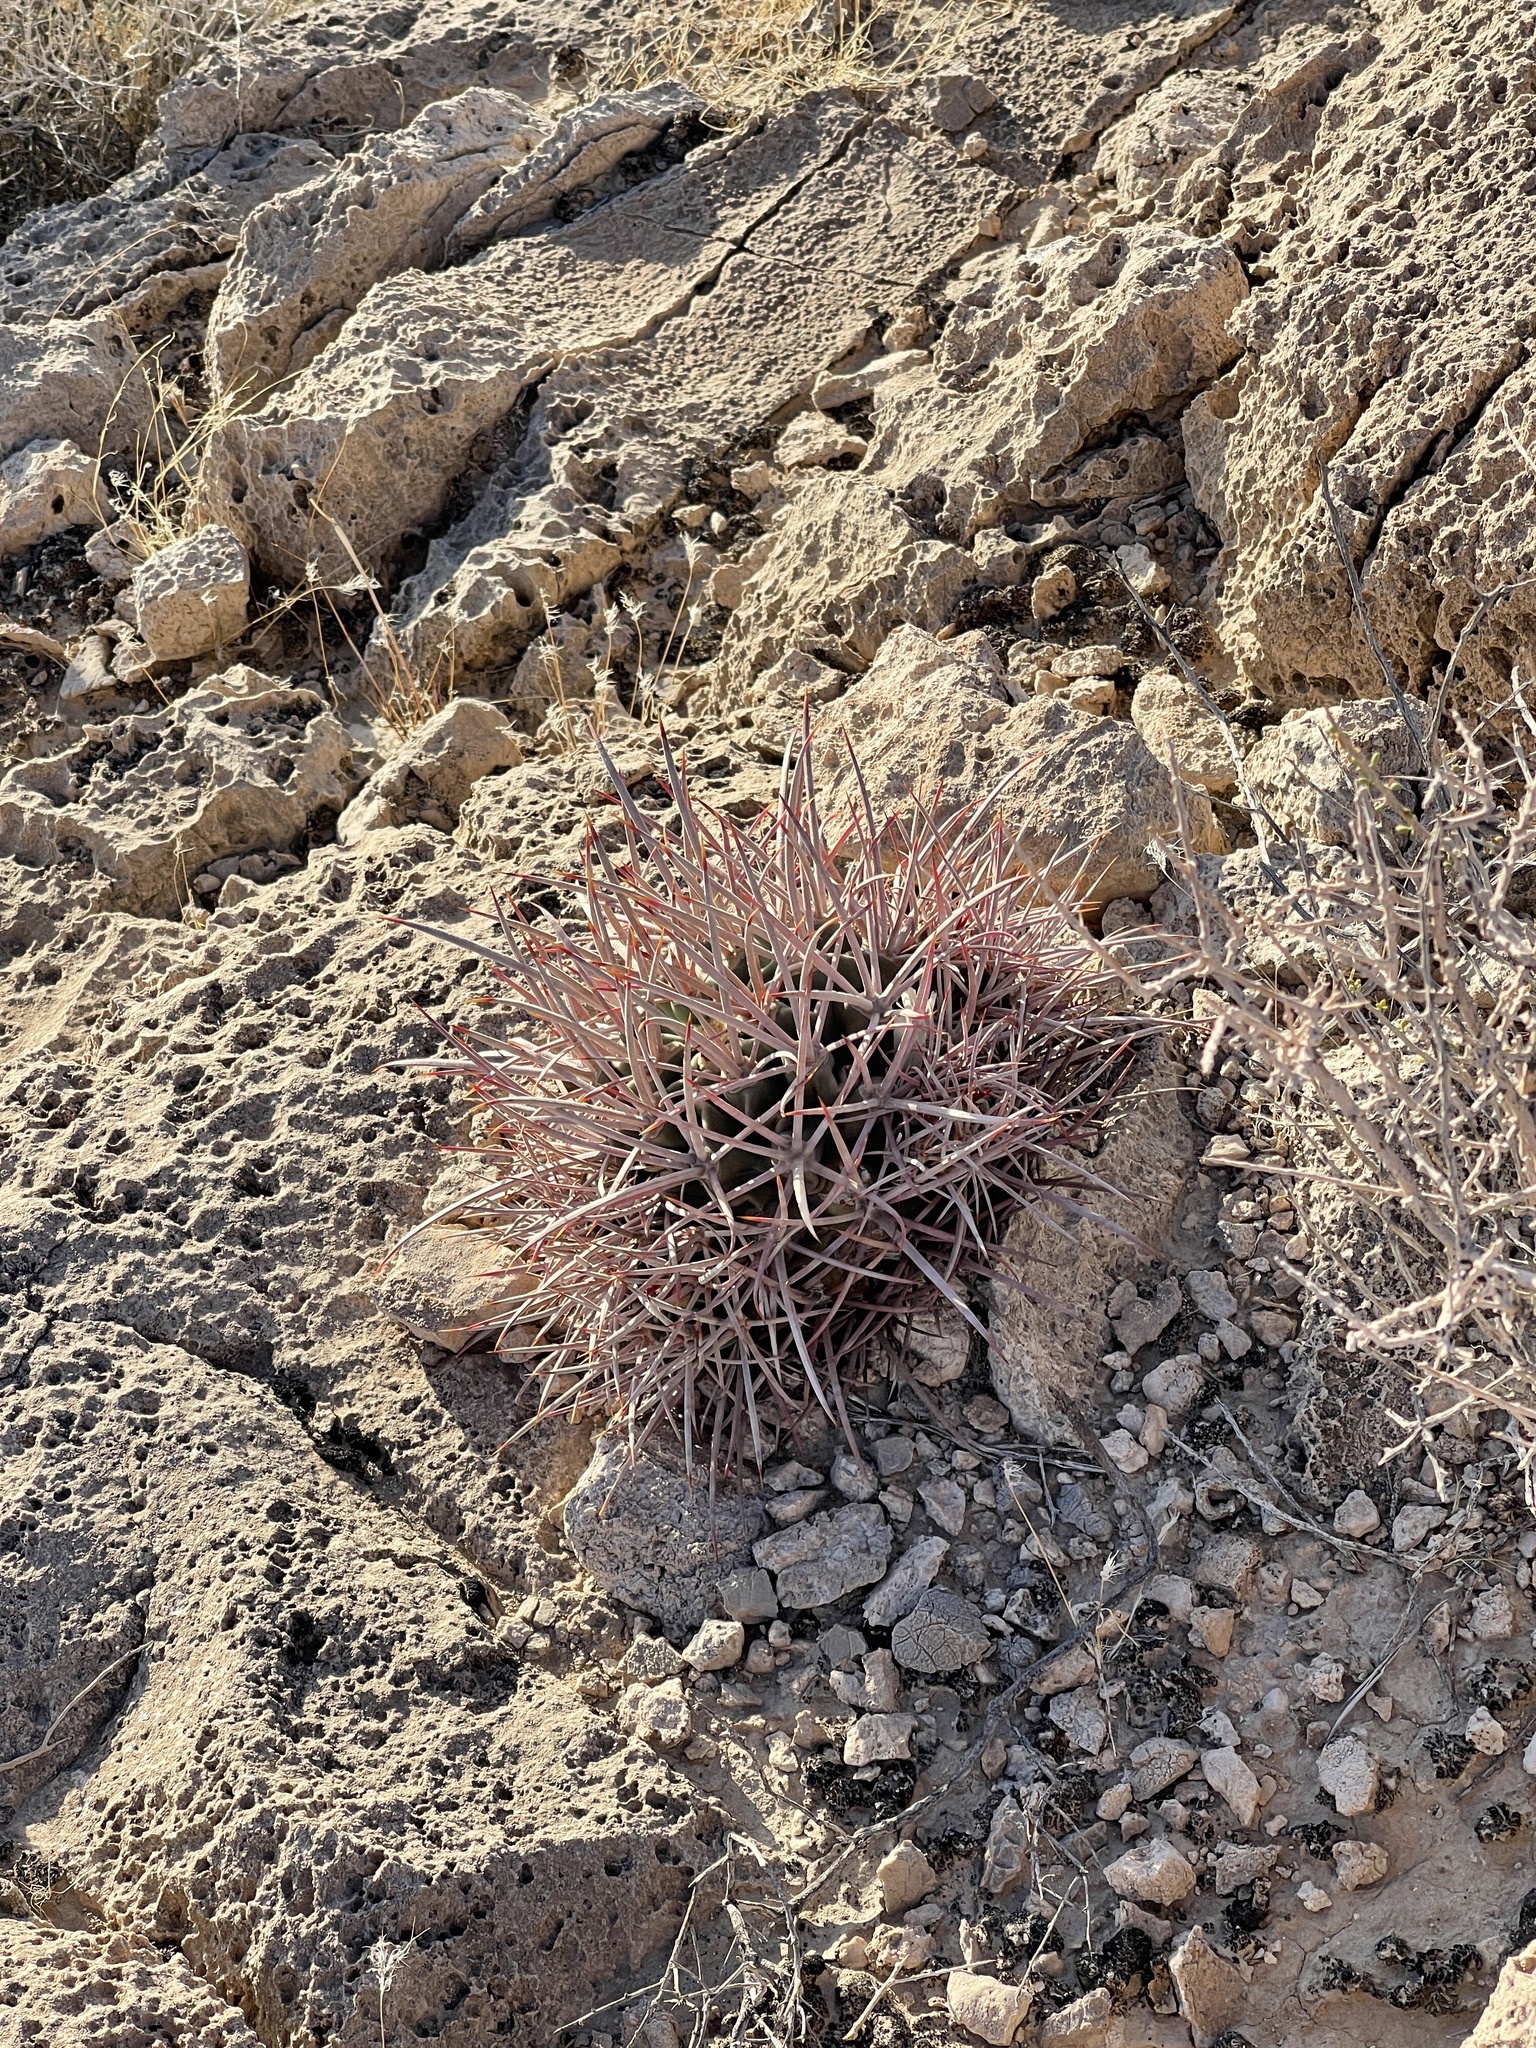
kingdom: Plantae
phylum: Tracheophyta
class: Magnoliopsida
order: Caryophyllales
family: Cactaceae
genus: Echinocactus
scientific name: Echinocactus polycephalus
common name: Cottontop cactus
